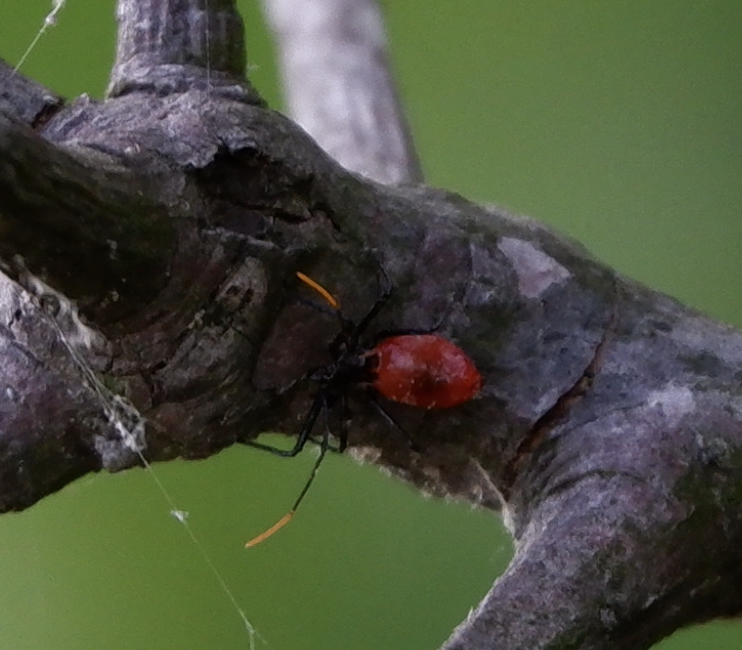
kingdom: Animalia
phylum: Arthropoda
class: Insecta
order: Hemiptera
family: Reduviidae
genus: Arilus
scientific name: Arilus cristatus
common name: North american wheel bug
